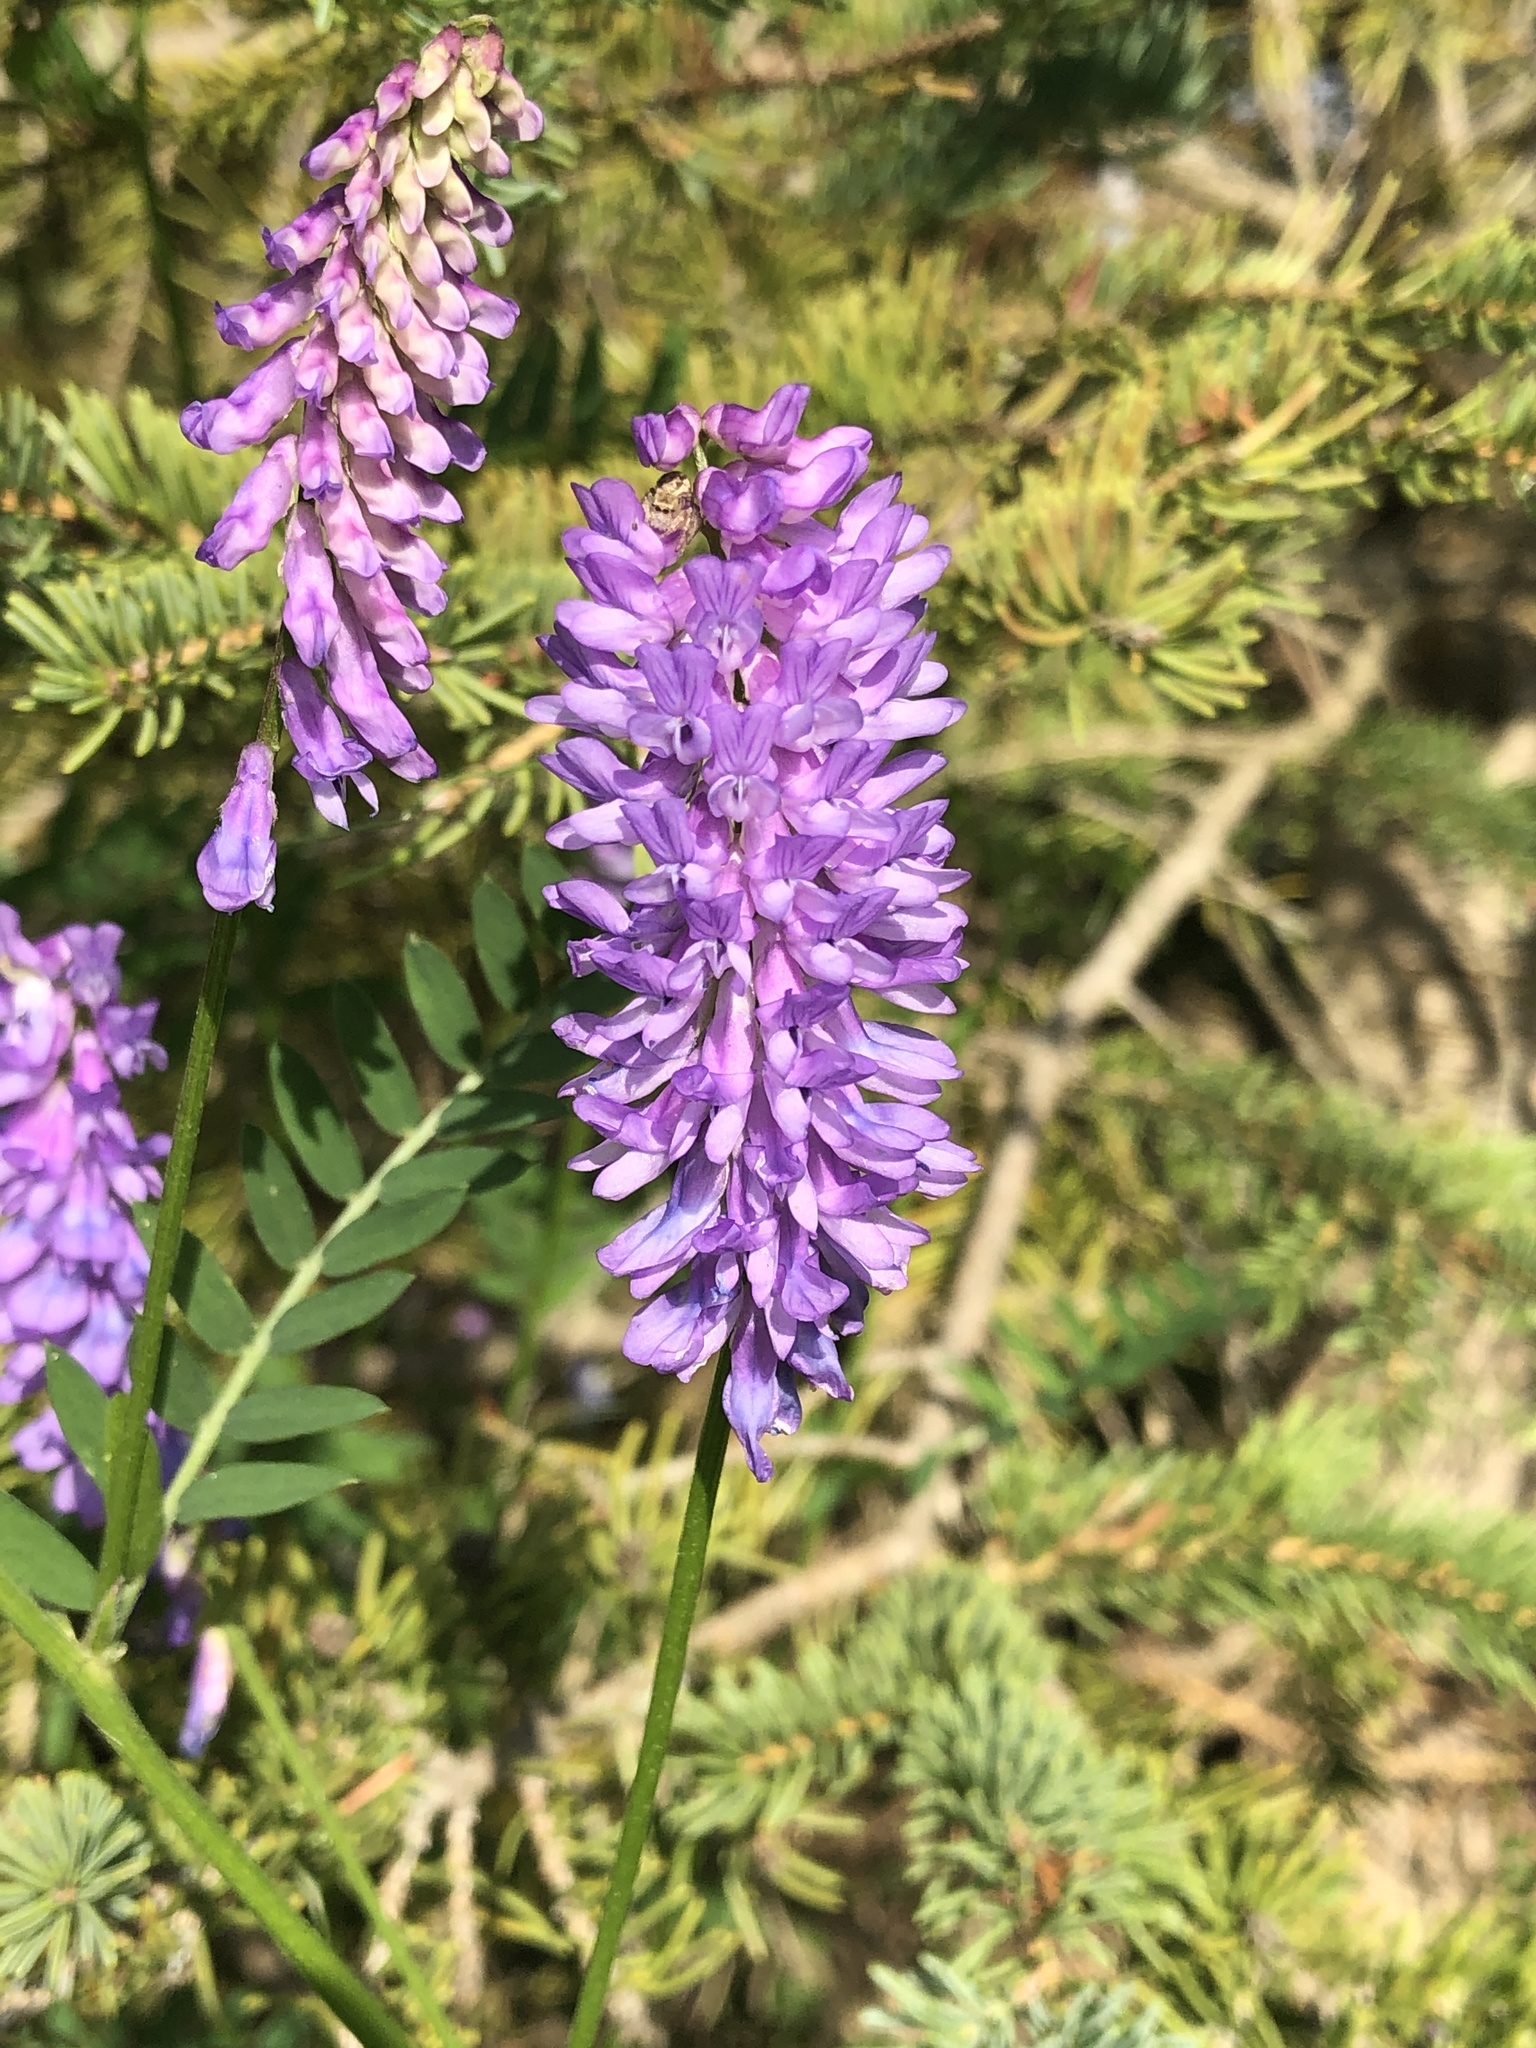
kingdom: Plantae
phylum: Tracheophyta
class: Magnoliopsida
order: Fabales
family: Fabaceae
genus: Vicia
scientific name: Vicia cracca
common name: Bird vetch
